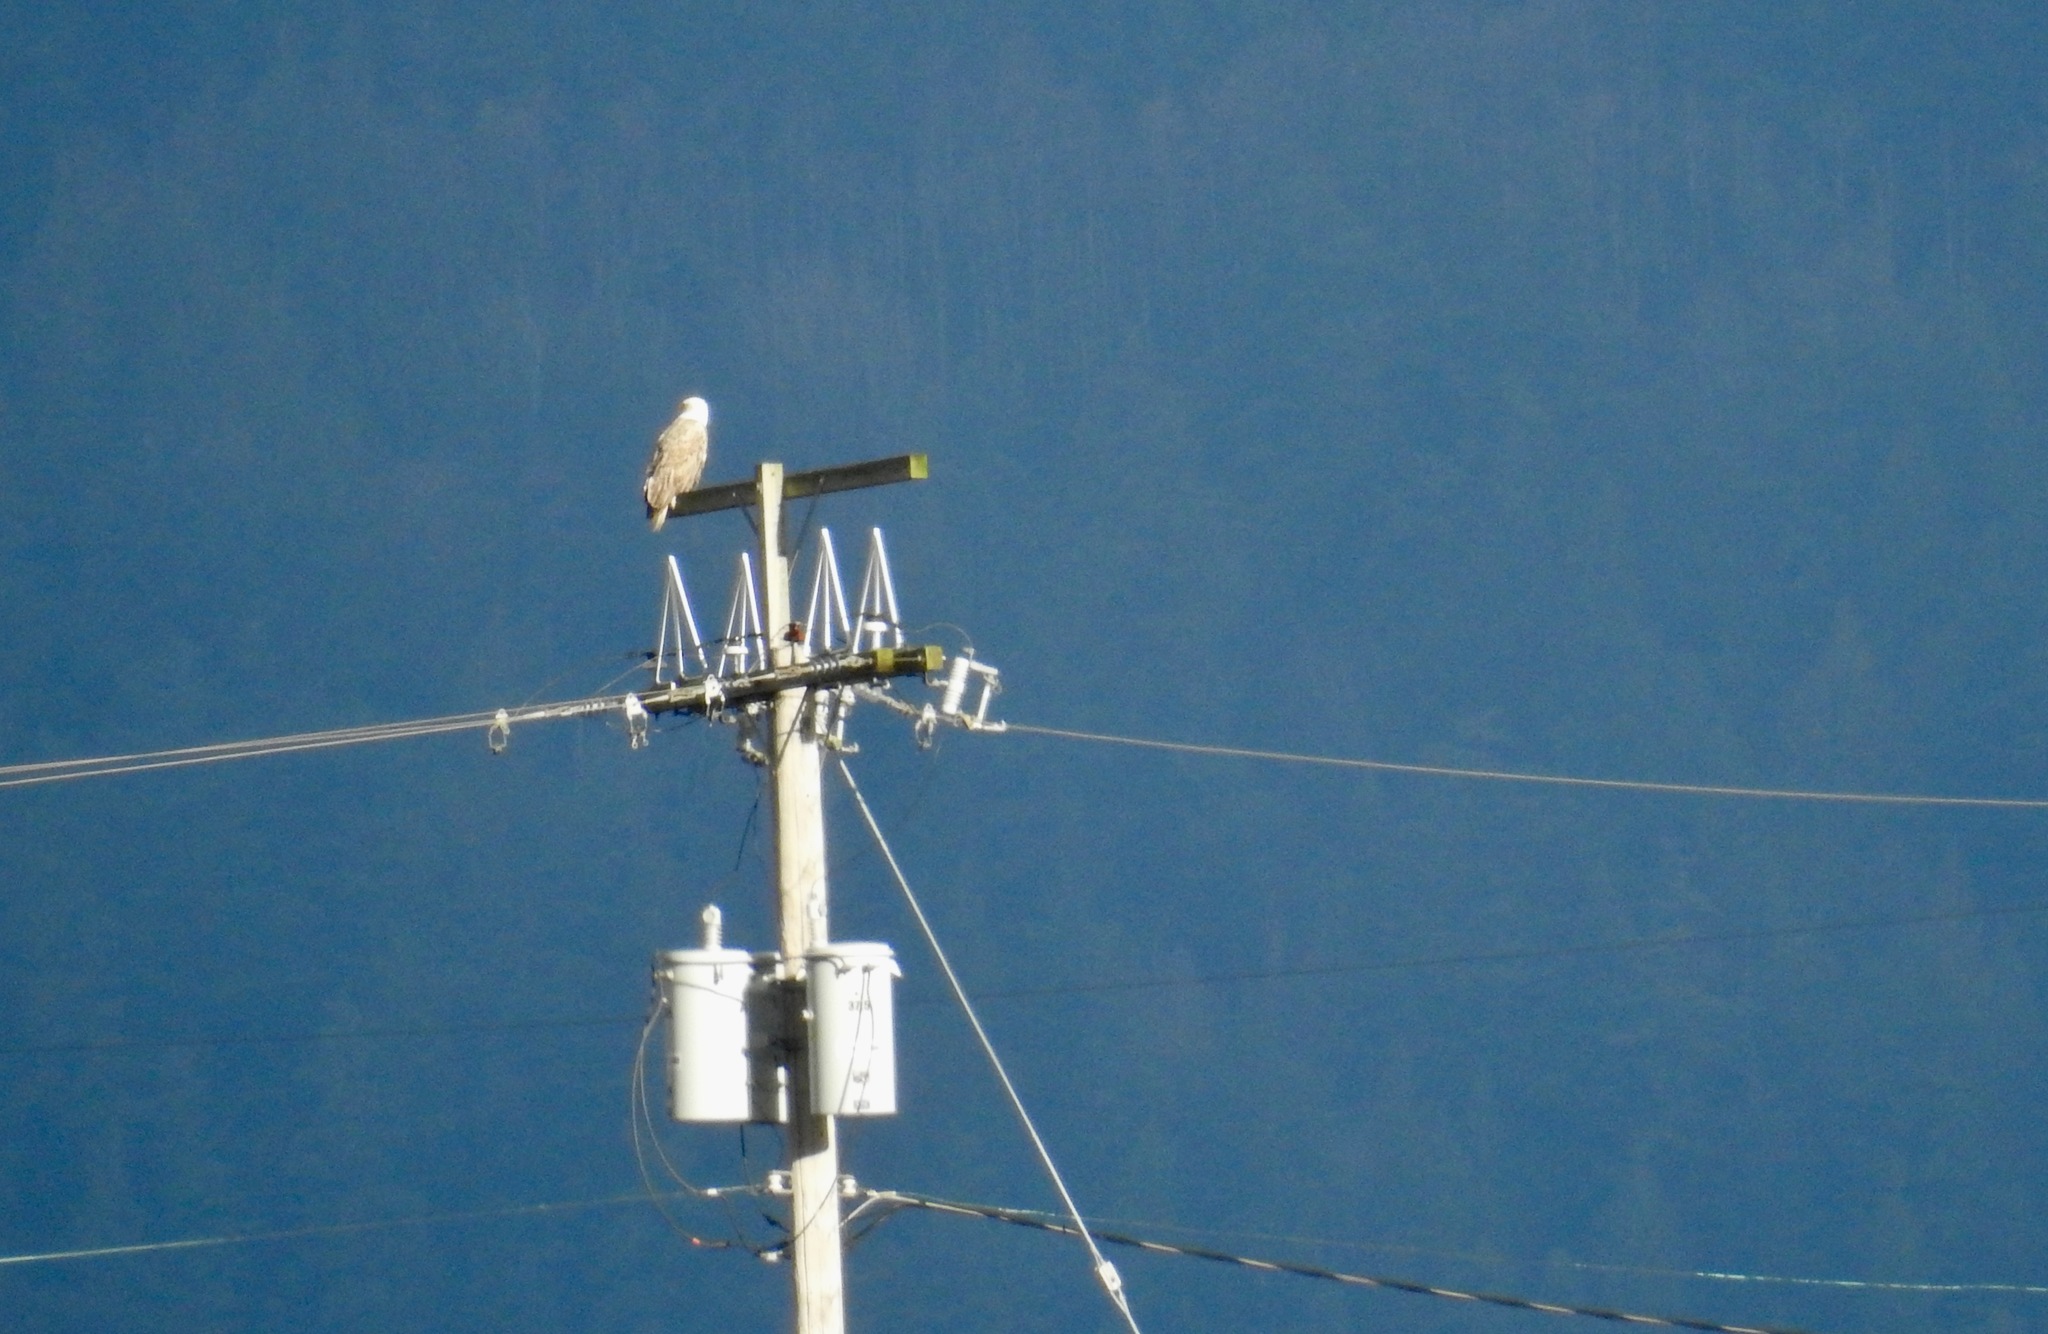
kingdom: Animalia
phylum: Chordata
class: Aves
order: Accipitriformes
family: Accipitridae
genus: Haliaeetus
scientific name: Haliaeetus leucocephalus
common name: Bald eagle
